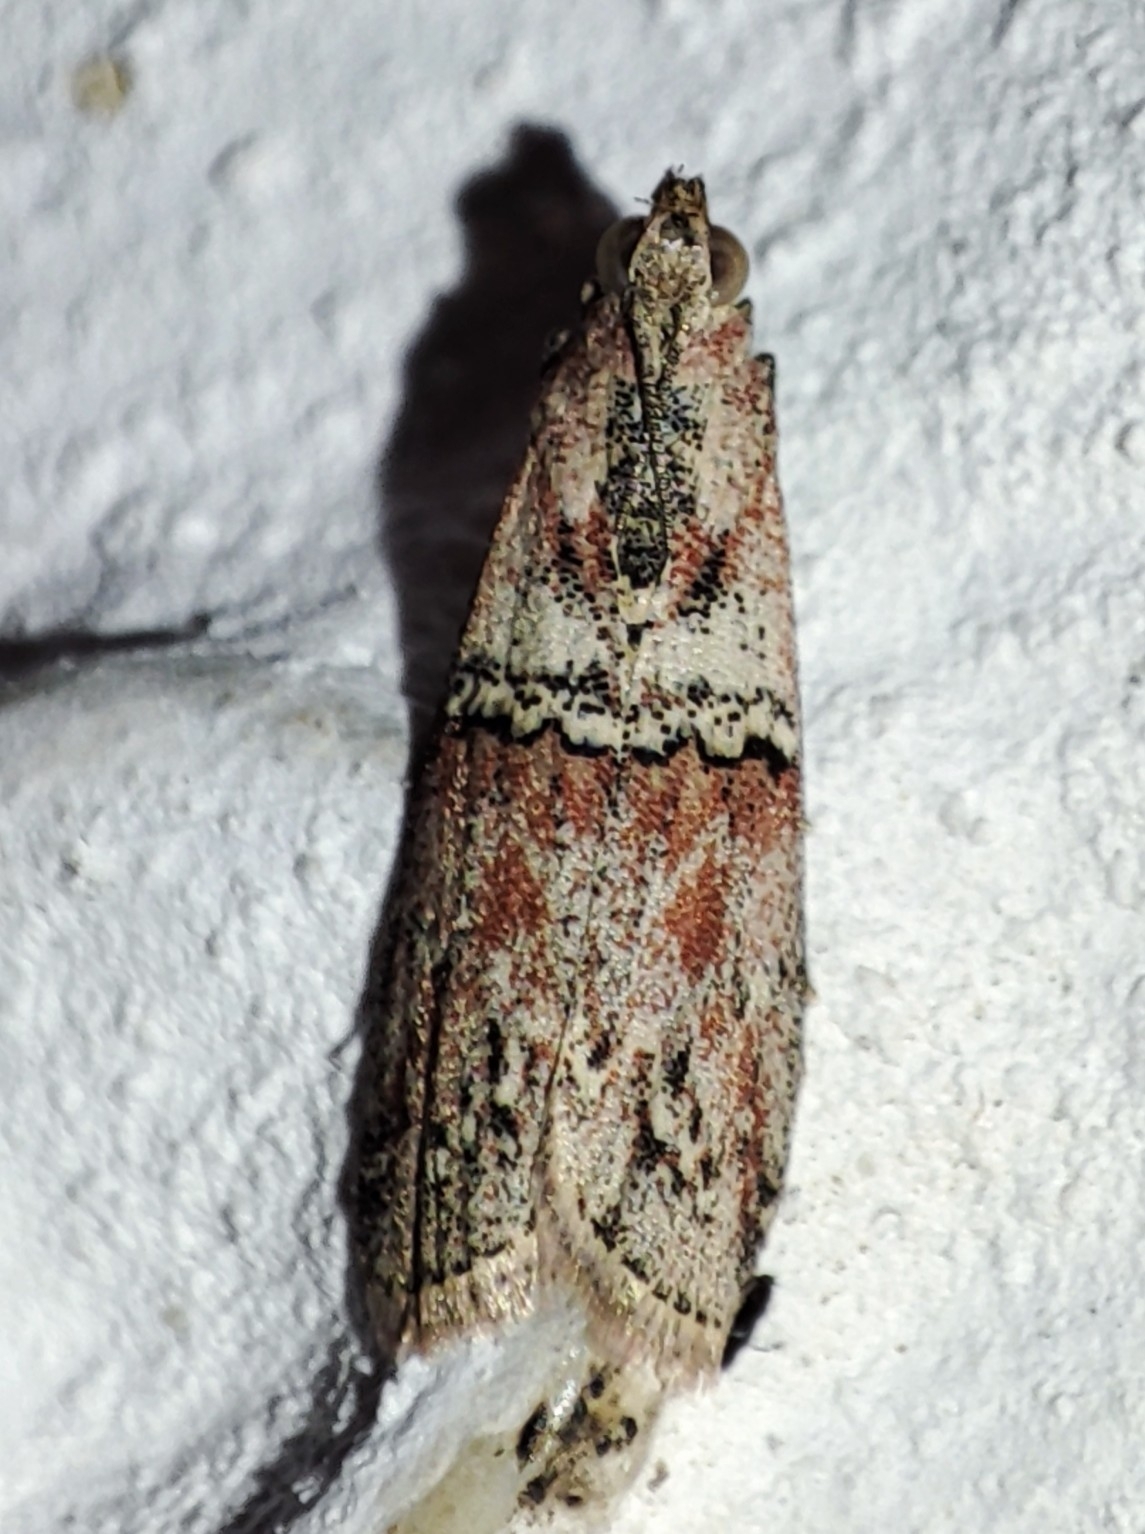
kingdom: Animalia
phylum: Arthropoda
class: Insecta
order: Lepidoptera
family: Pyralidae
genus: Merulempista
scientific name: Merulempista cingillella
